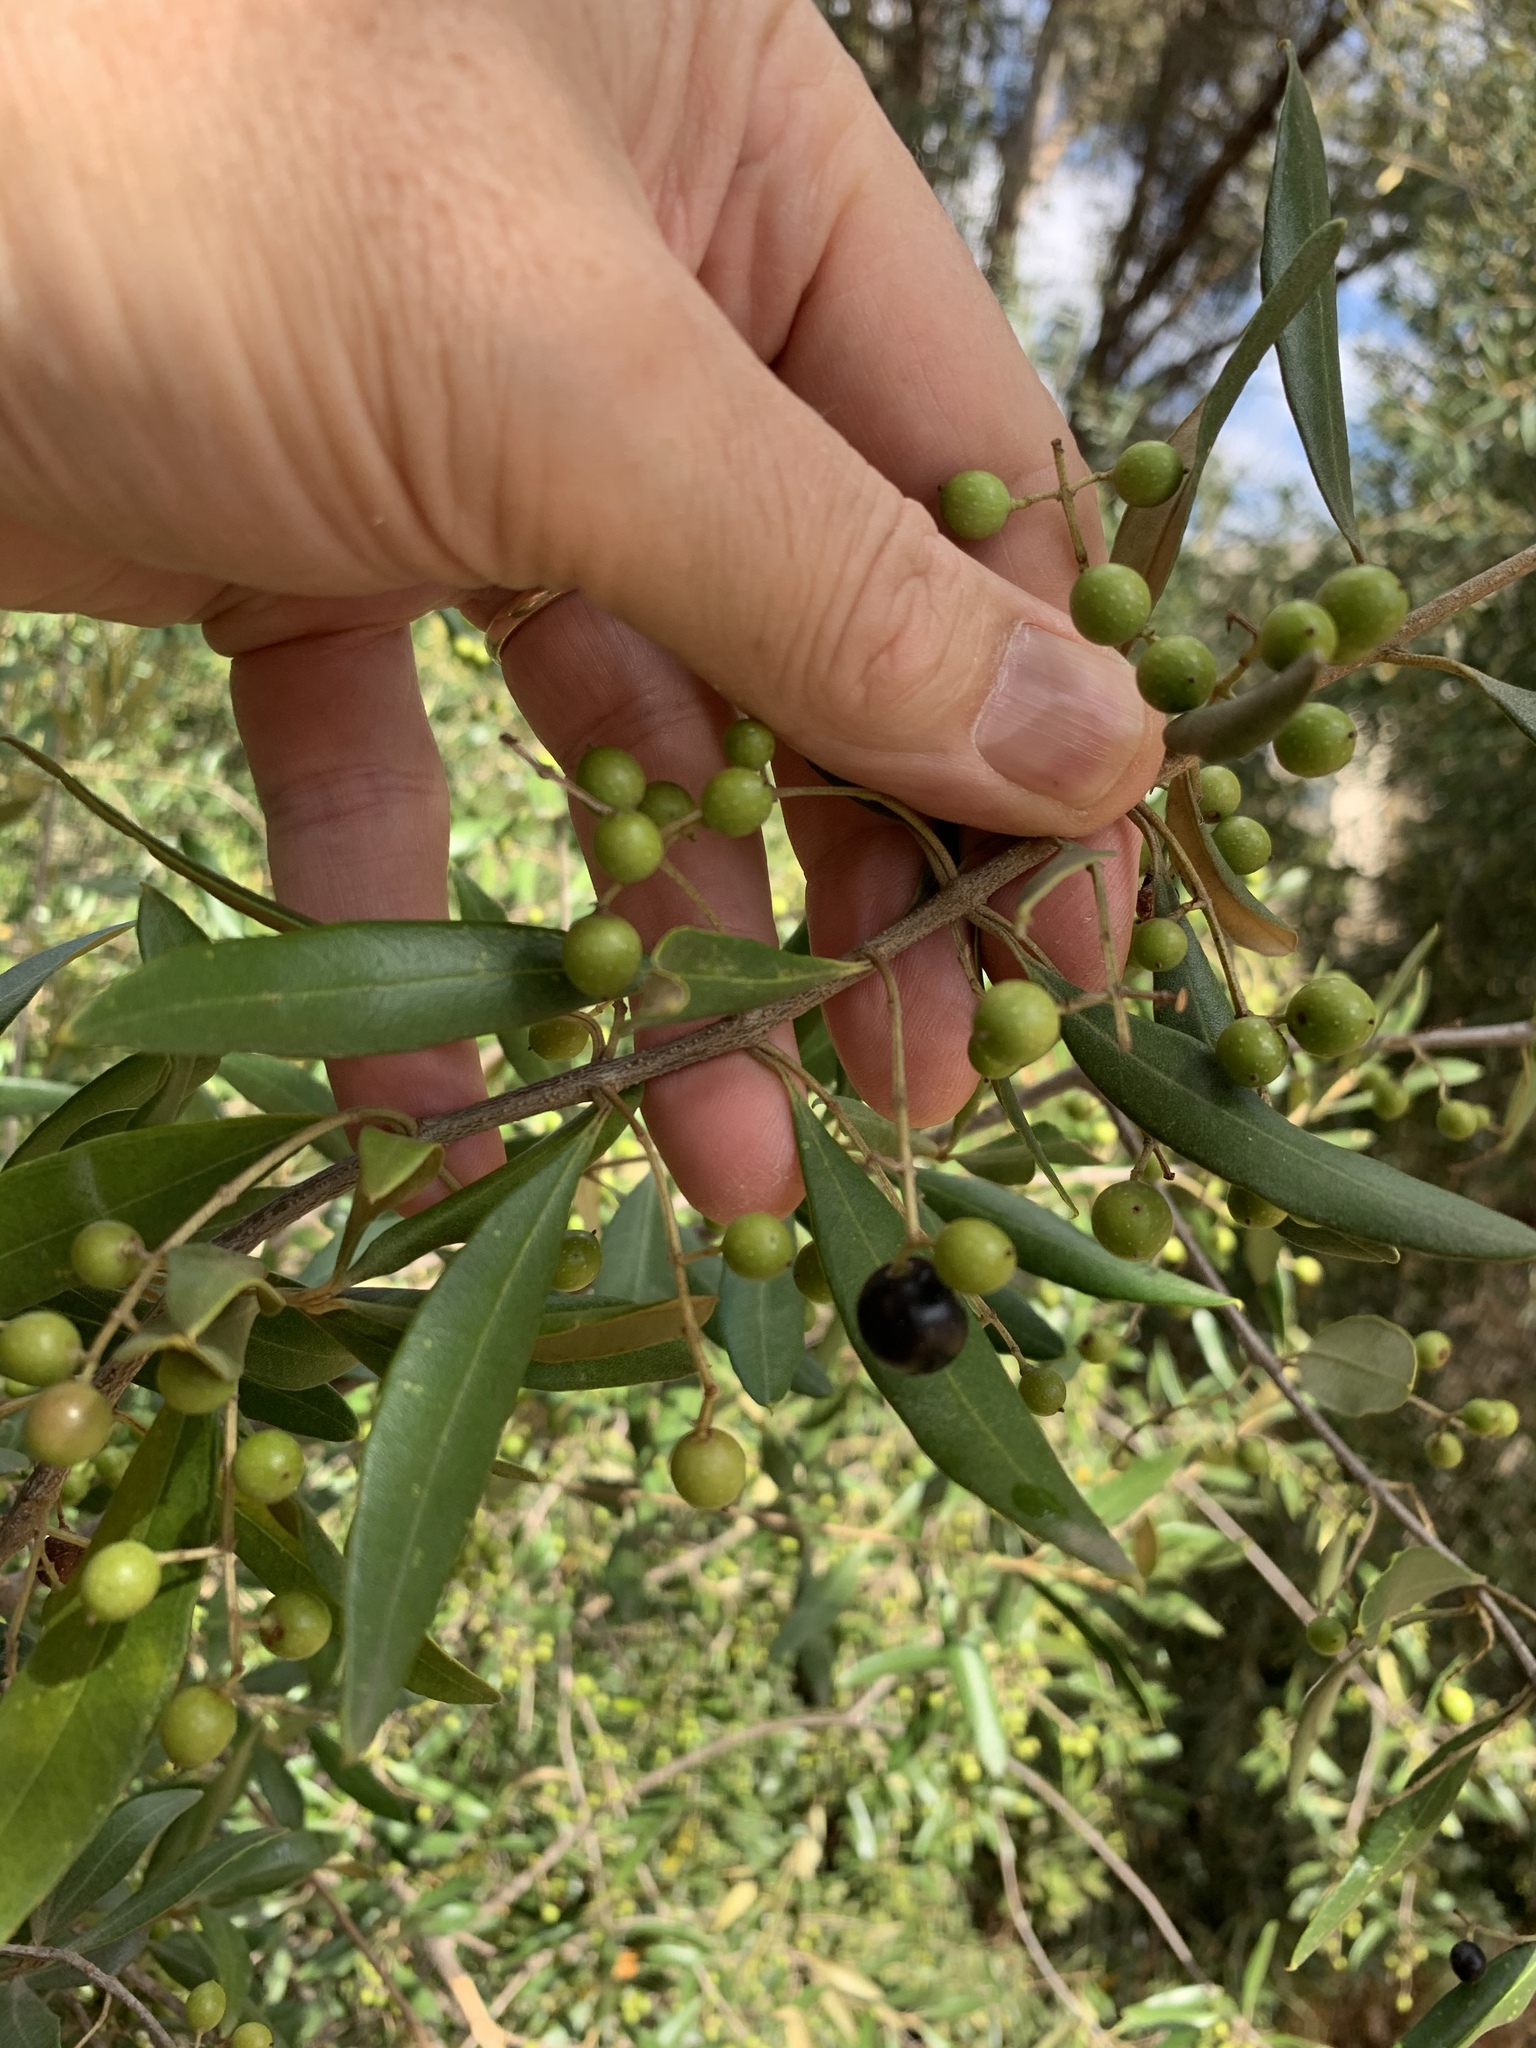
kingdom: Plantae
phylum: Tracheophyta
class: Magnoliopsida
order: Lamiales
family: Oleaceae
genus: Olea
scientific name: Olea europaea
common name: Olive
